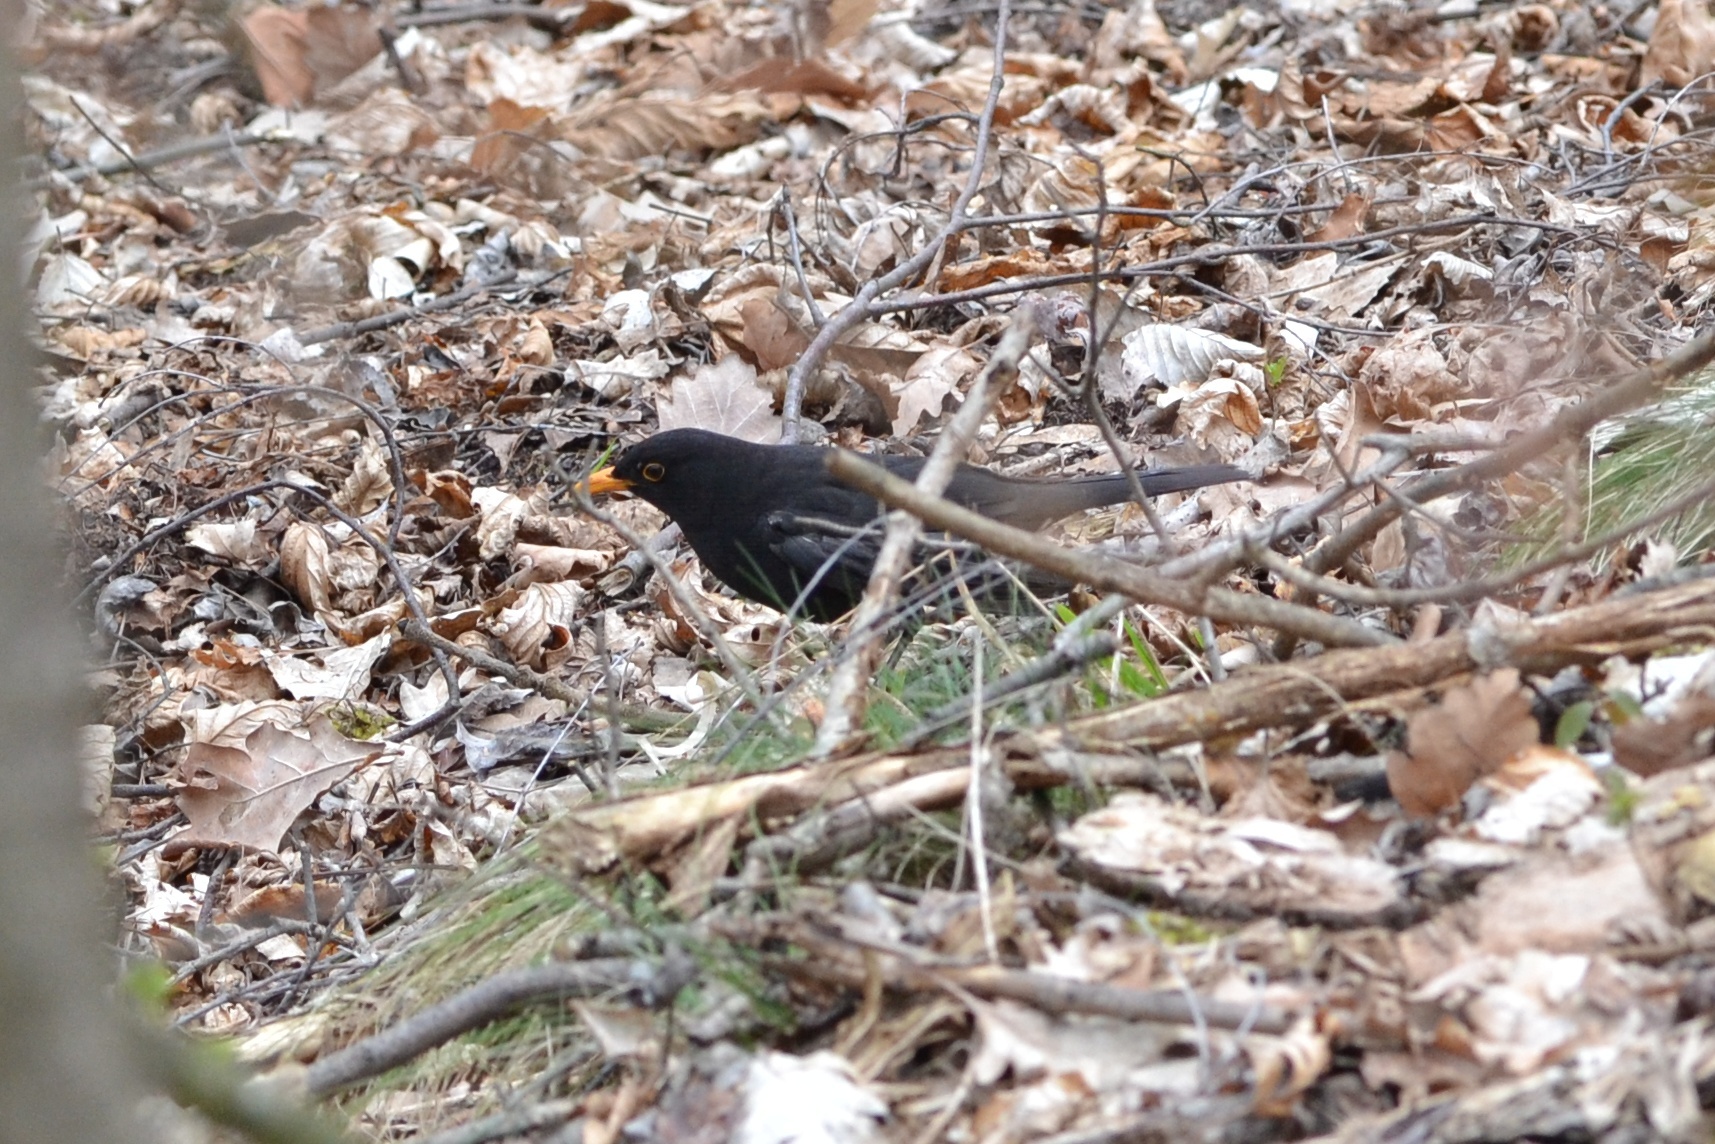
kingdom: Animalia
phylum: Chordata
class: Aves
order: Passeriformes
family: Turdidae
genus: Turdus
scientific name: Turdus merula
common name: Common blackbird
